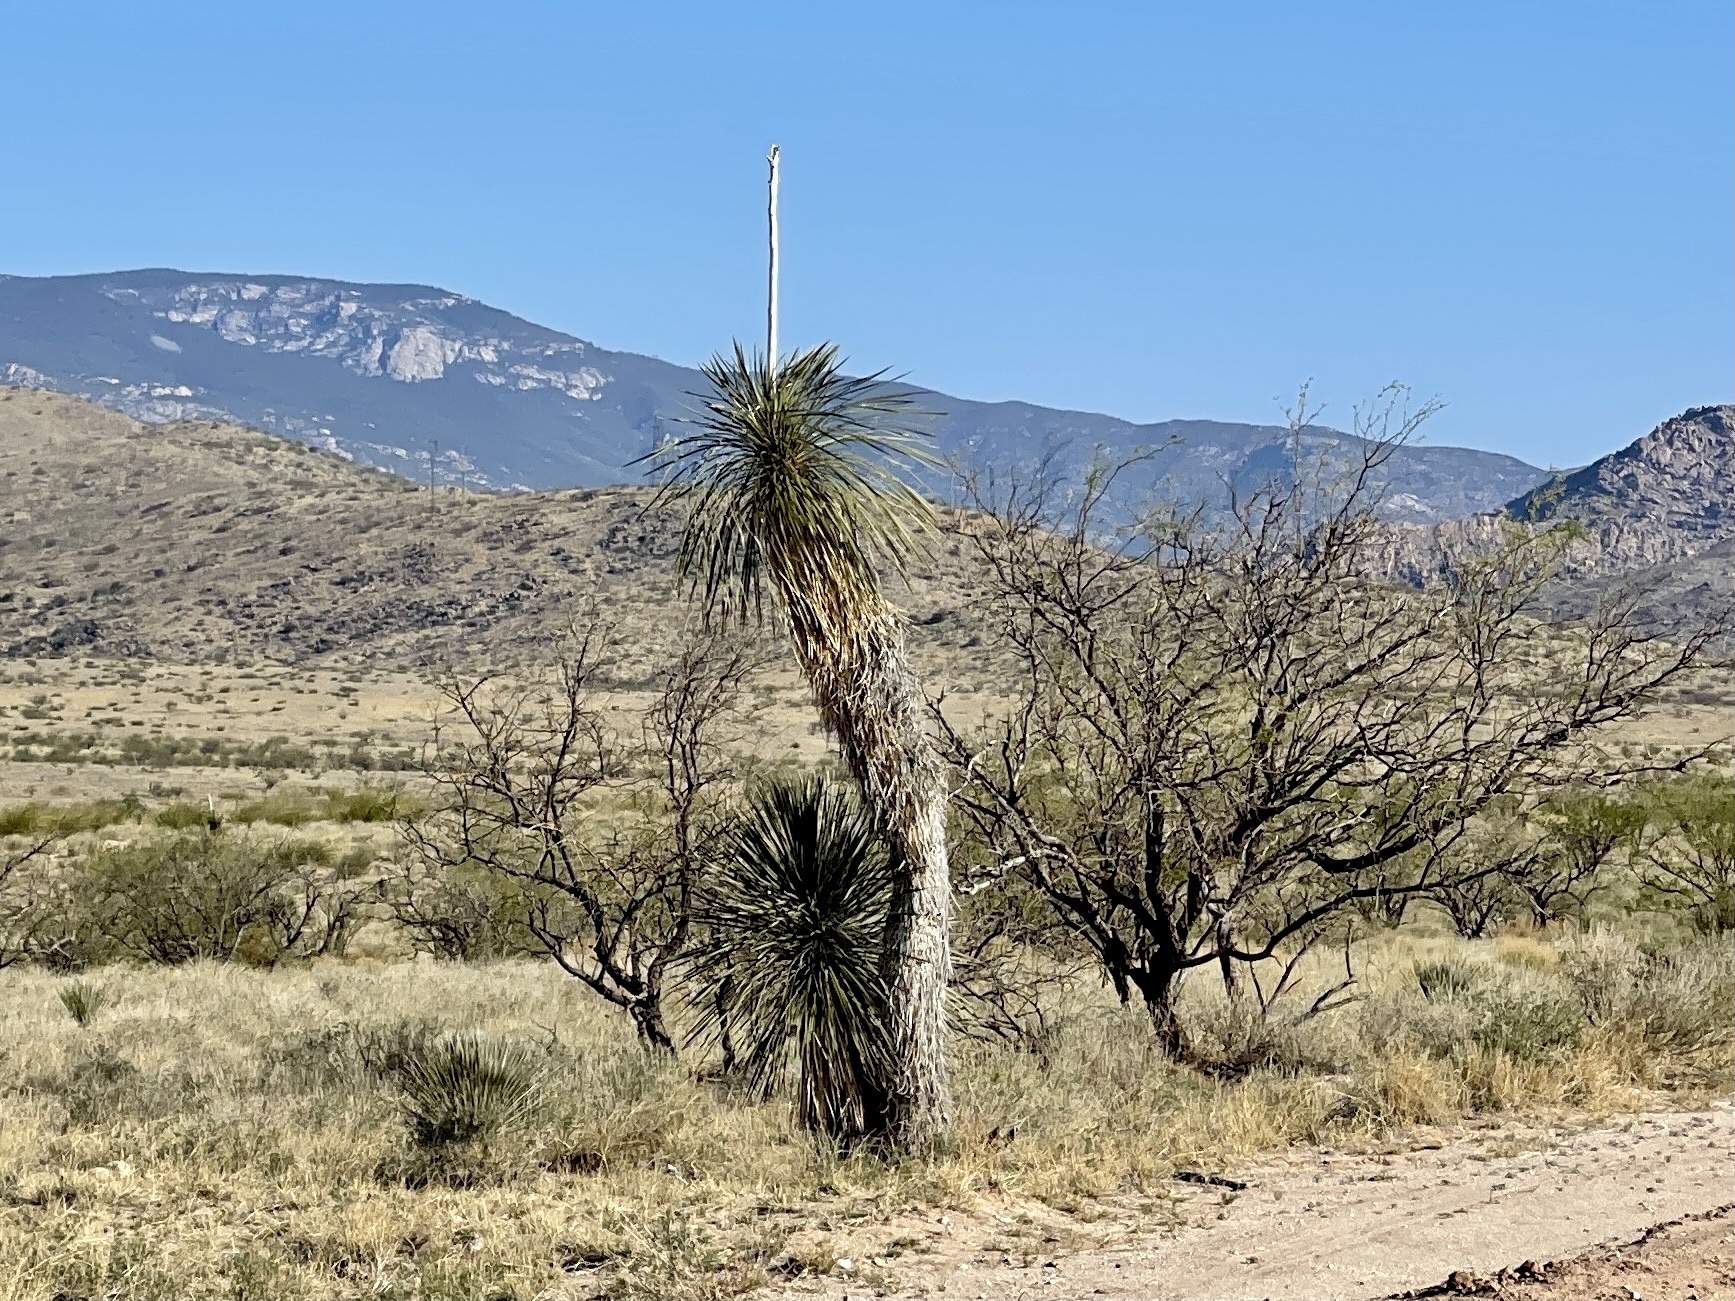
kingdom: Plantae
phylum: Tracheophyta
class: Liliopsida
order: Asparagales
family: Asparagaceae
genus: Yucca
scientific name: Yucca elata
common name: Palmella
